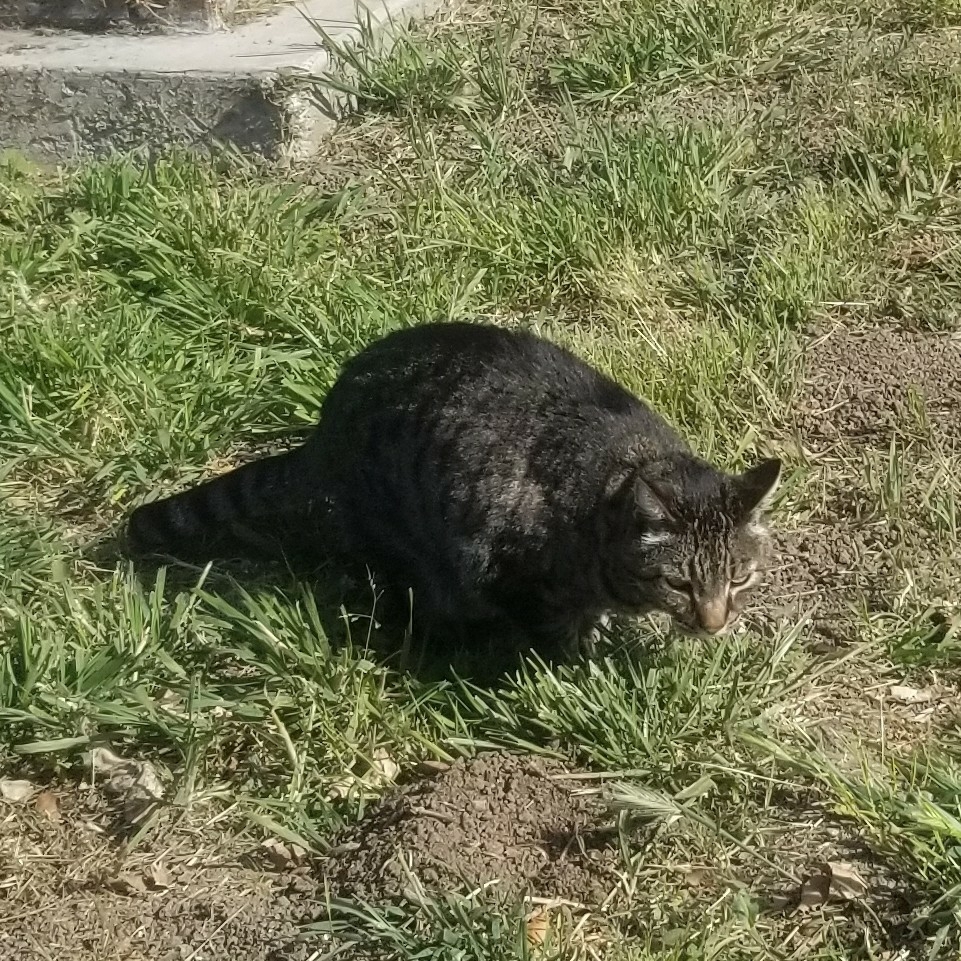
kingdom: Animalia
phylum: Chordata
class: Mammalia
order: Carnivora
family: Felidae
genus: Felis
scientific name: Felis catus
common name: Domestic cat
